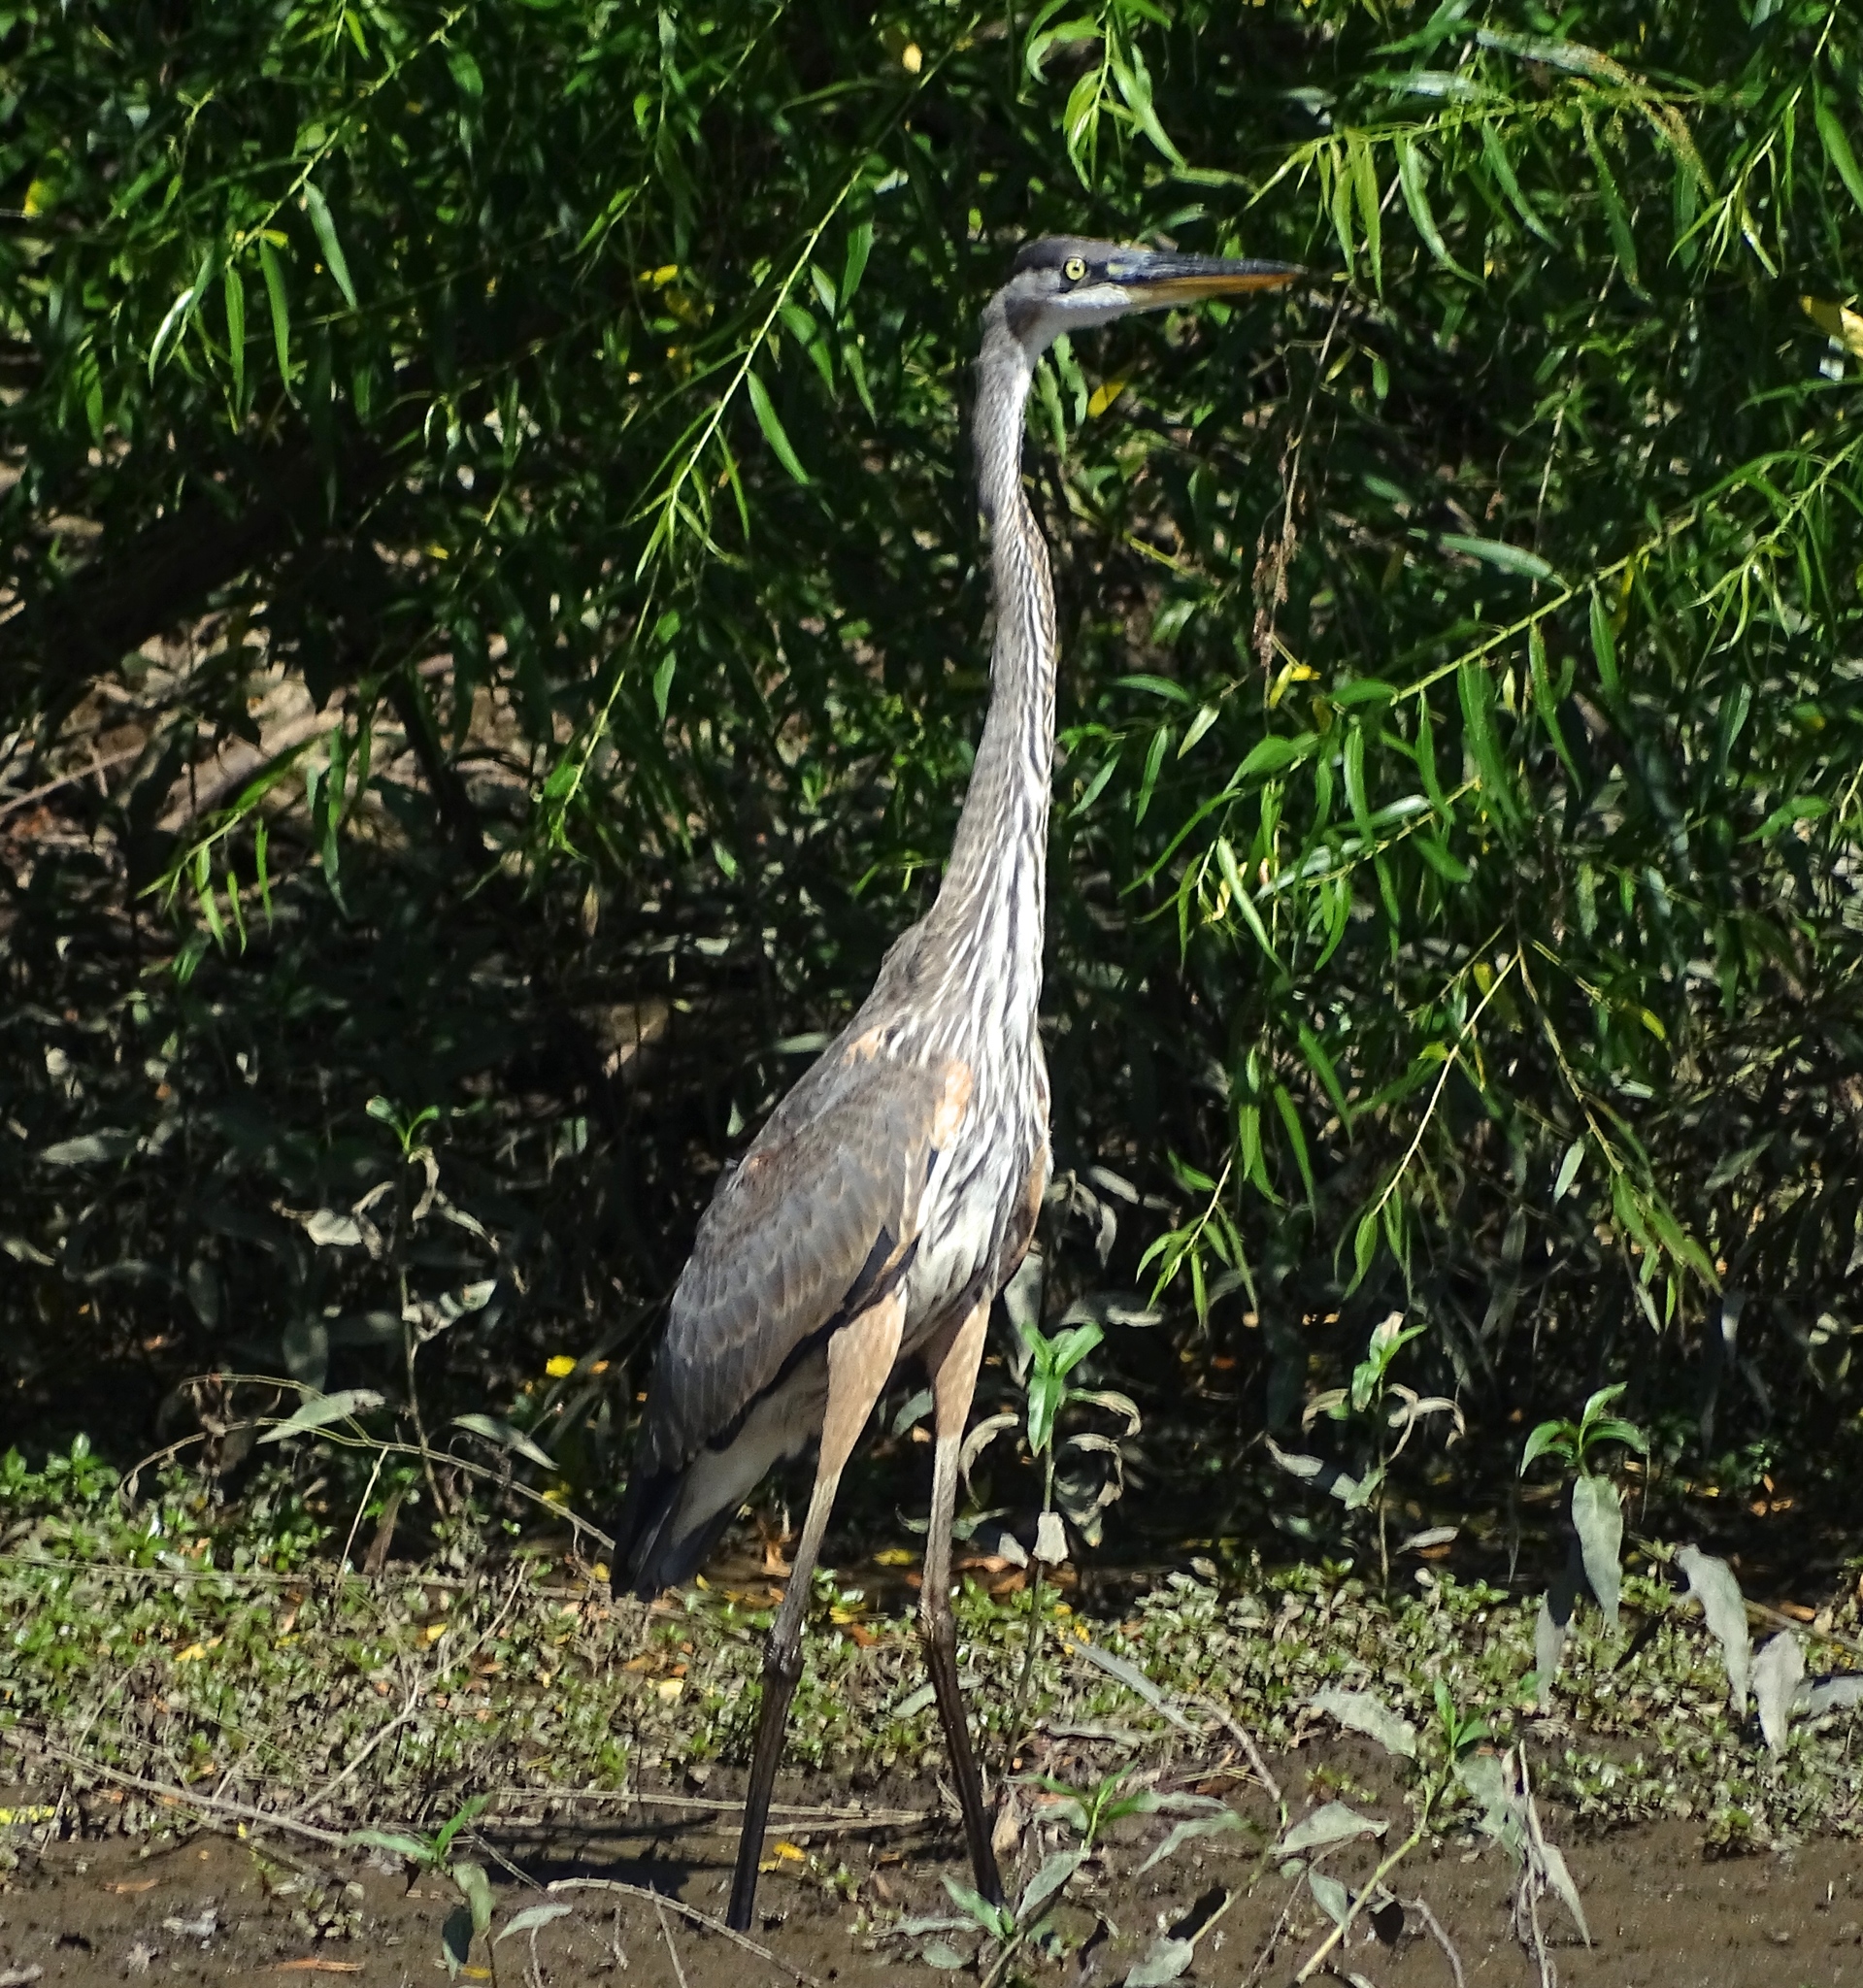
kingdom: Animalia
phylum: Chordata
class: Aves
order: Pelecaniformes
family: Ardeidae
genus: Ardea
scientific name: Ardea herodias
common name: Great blue heron
